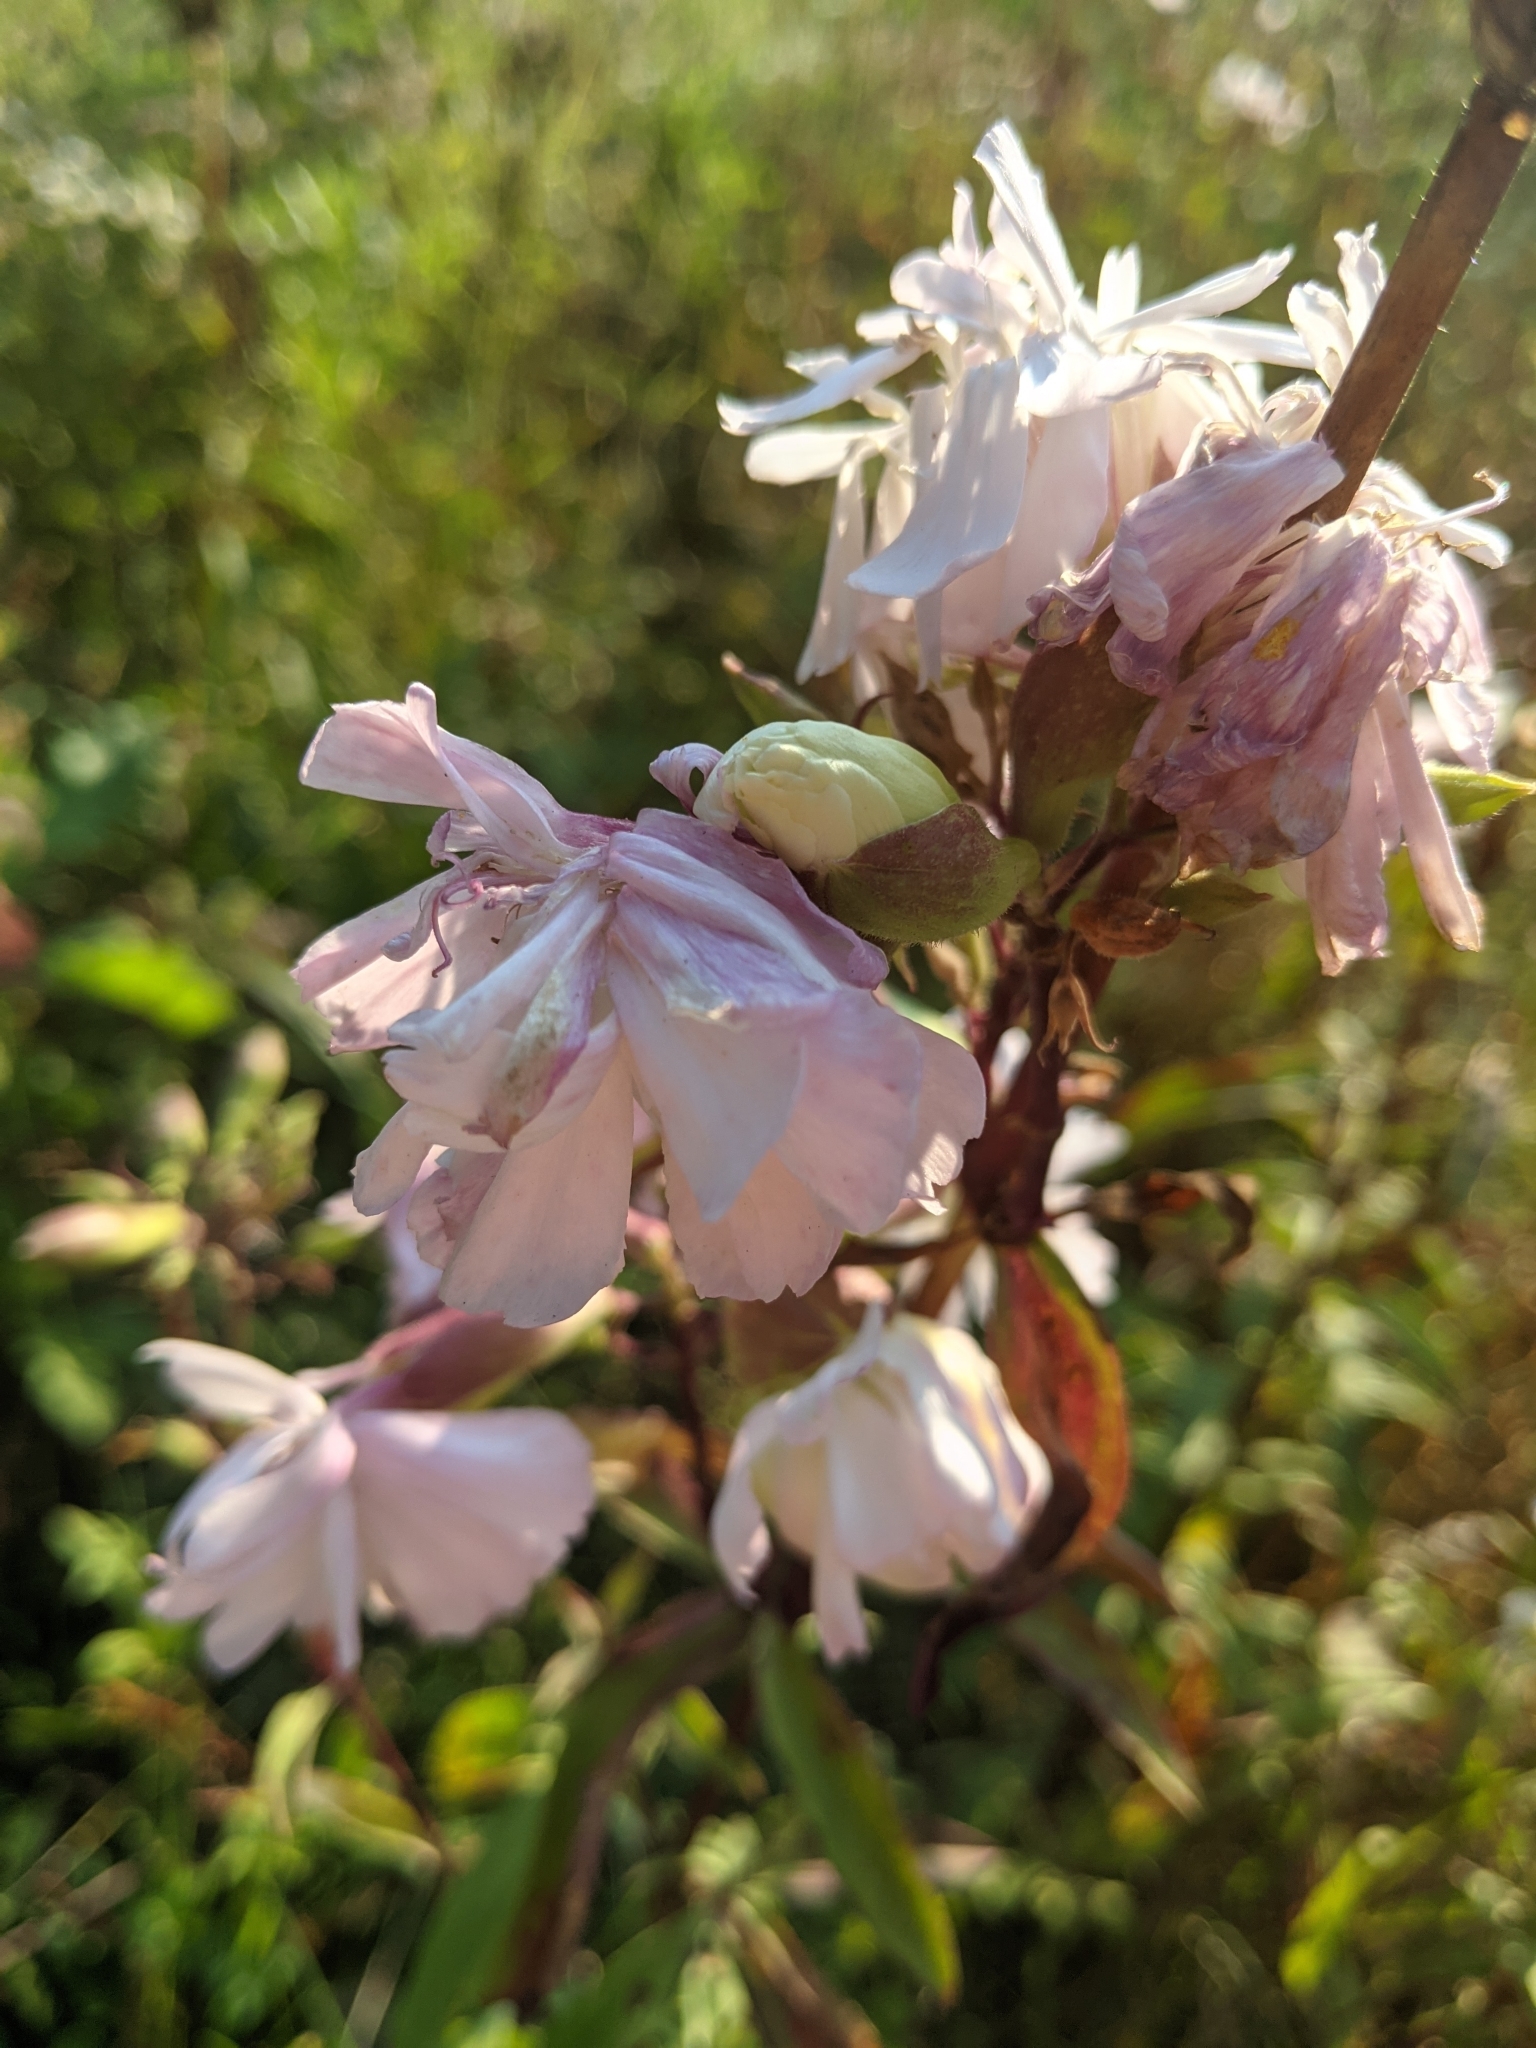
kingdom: Plantae
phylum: Tracheophyta
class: Magnoliopsida
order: Caryophyllales
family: Caryophyllaceae
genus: Saponaria
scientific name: Saponaria officinalis
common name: Soapwort
